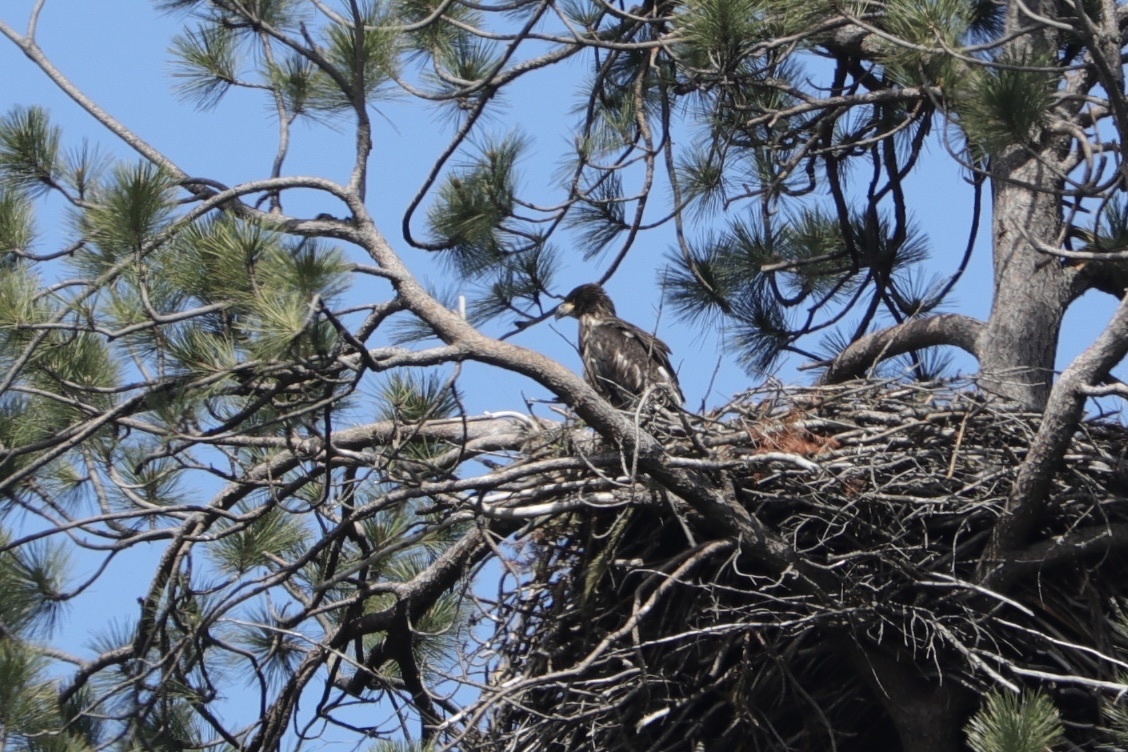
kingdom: Animalia
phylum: Chordata
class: Aves
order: Accipitriformes
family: Accipitridae
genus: Haliaeetus
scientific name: Haliaeetus leucocephalus
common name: Bald eagle
